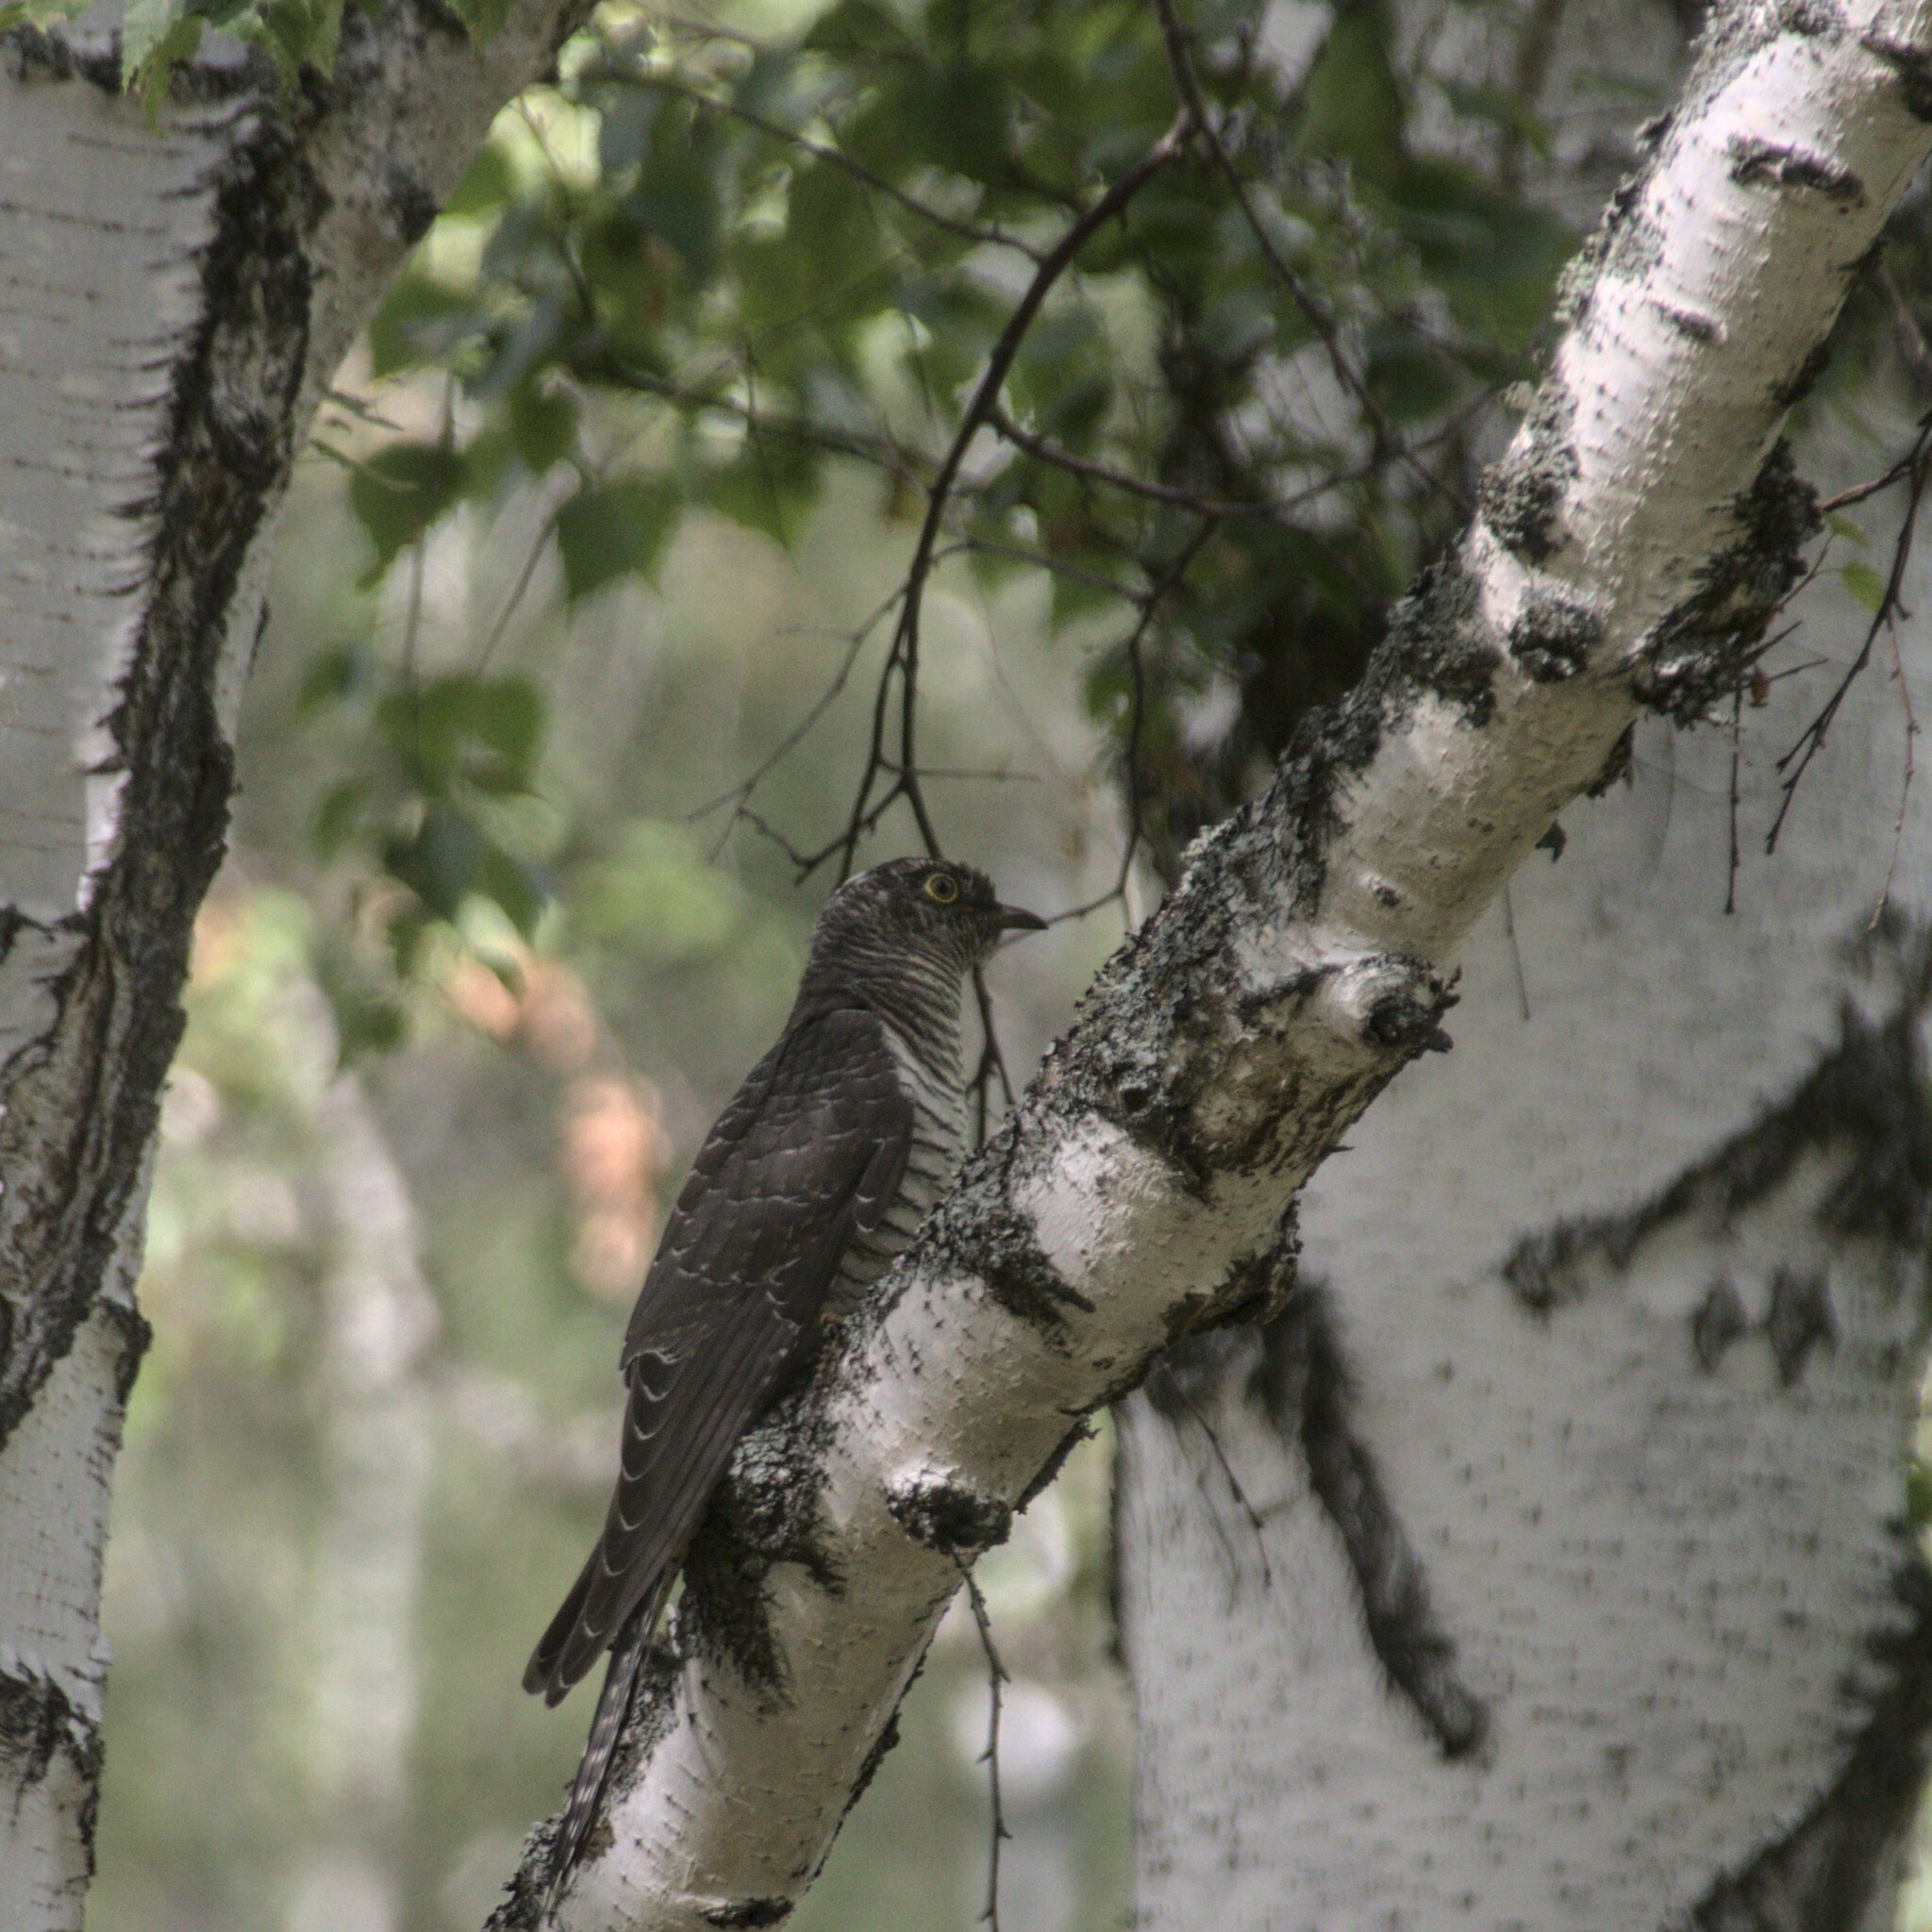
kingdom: Animalia
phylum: Chordata
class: Aves
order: Cuculiformes
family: Cuculidae
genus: Cuculus
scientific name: Cuculus canorus
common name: Common cuckoo
